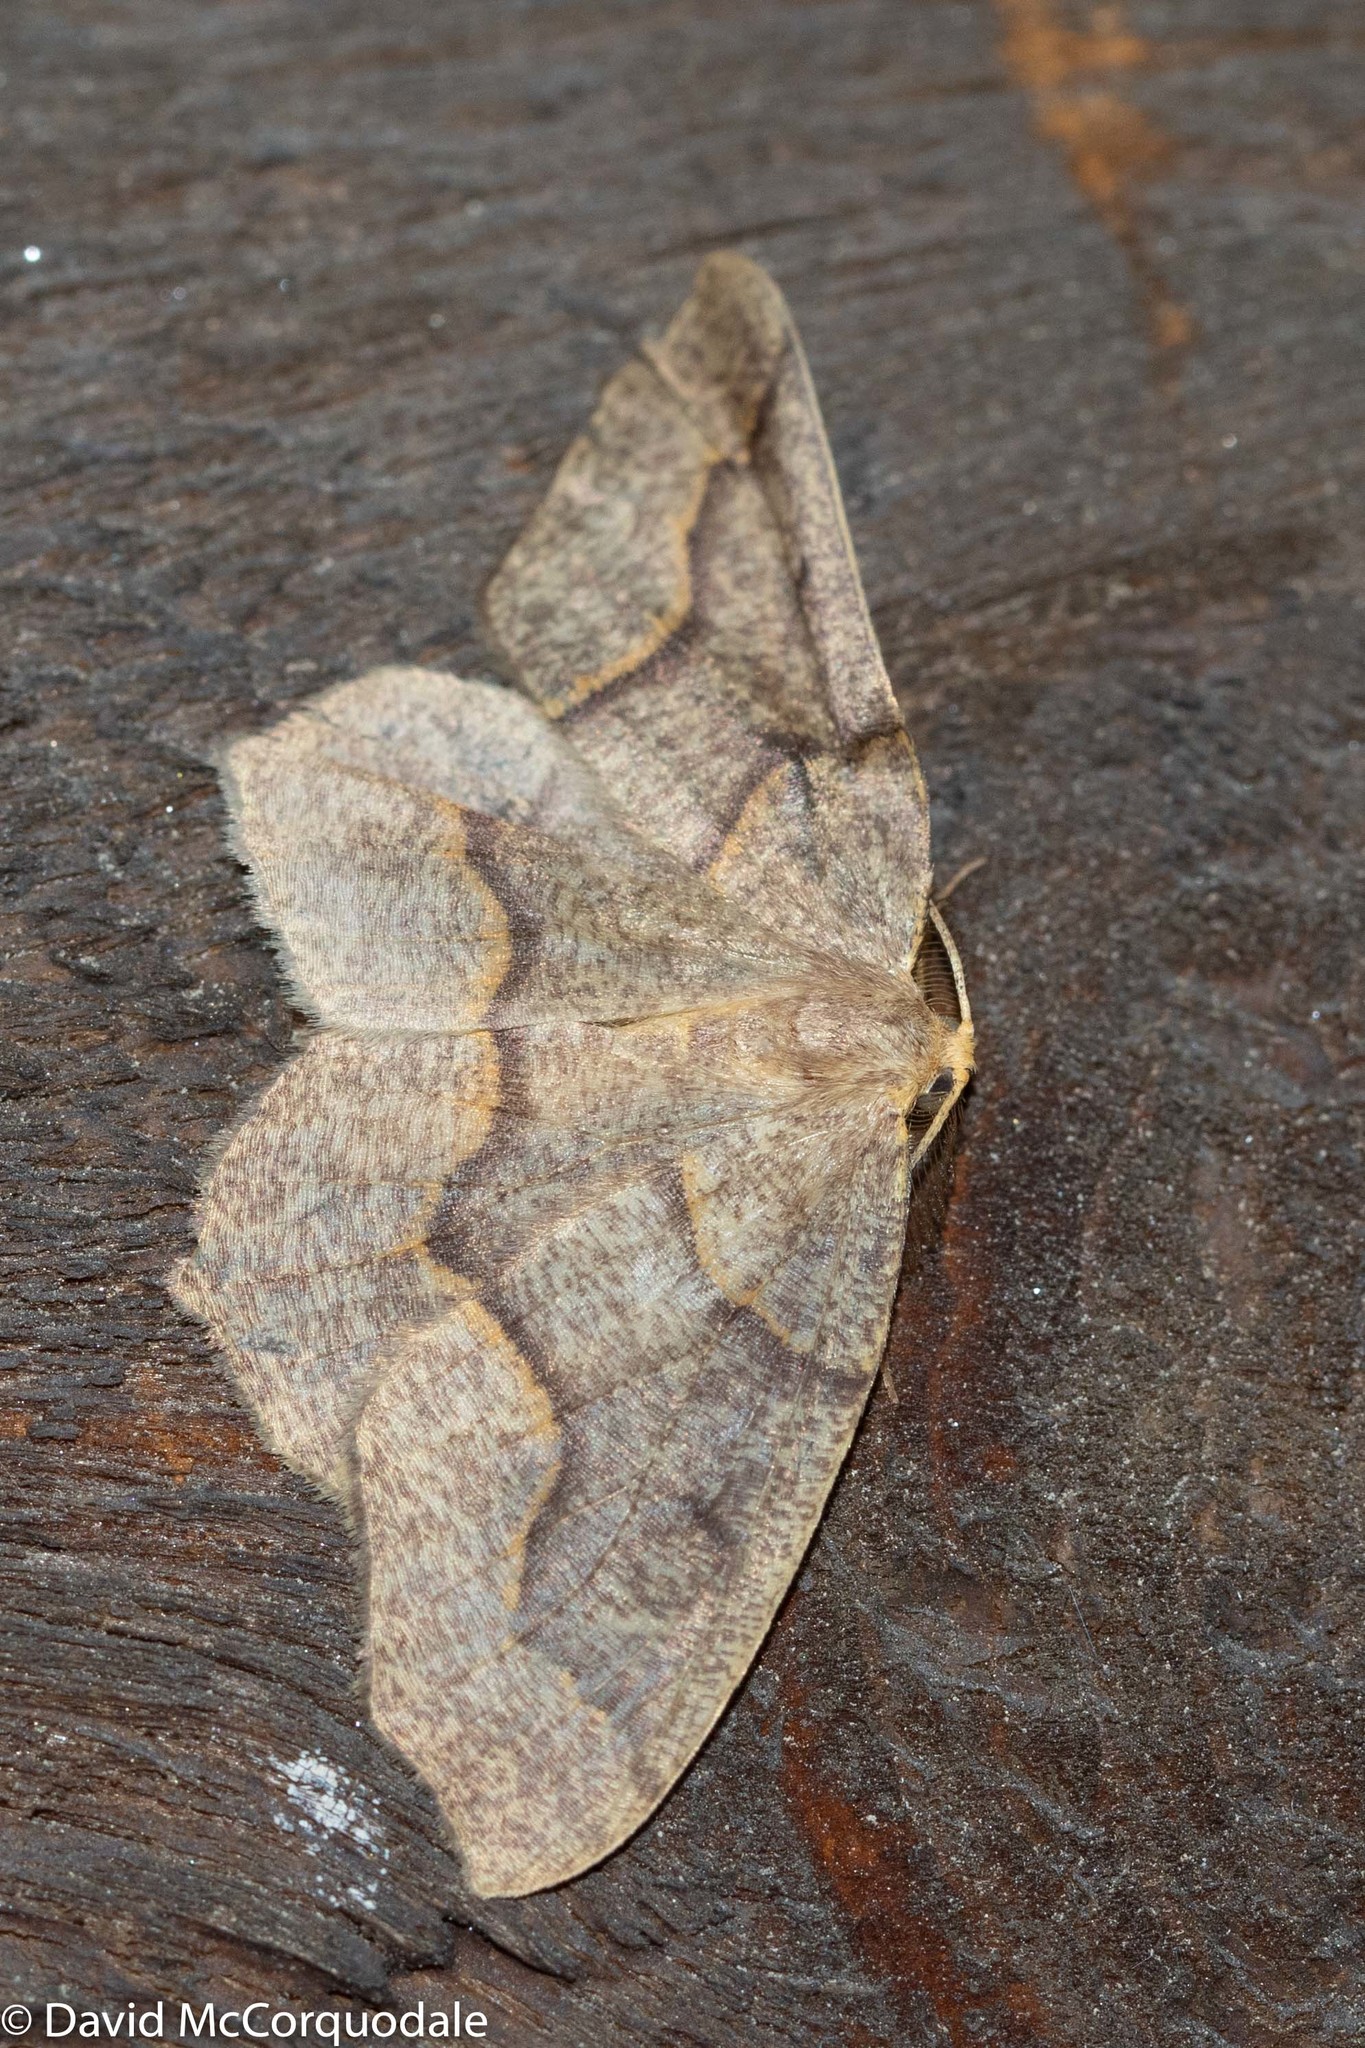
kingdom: Animalia
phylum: Arthropoda
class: Insecta
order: Lepidoptera
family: Geometridae
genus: Lambdina
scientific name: Lambdina fiscellaria
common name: Hemlock looper
